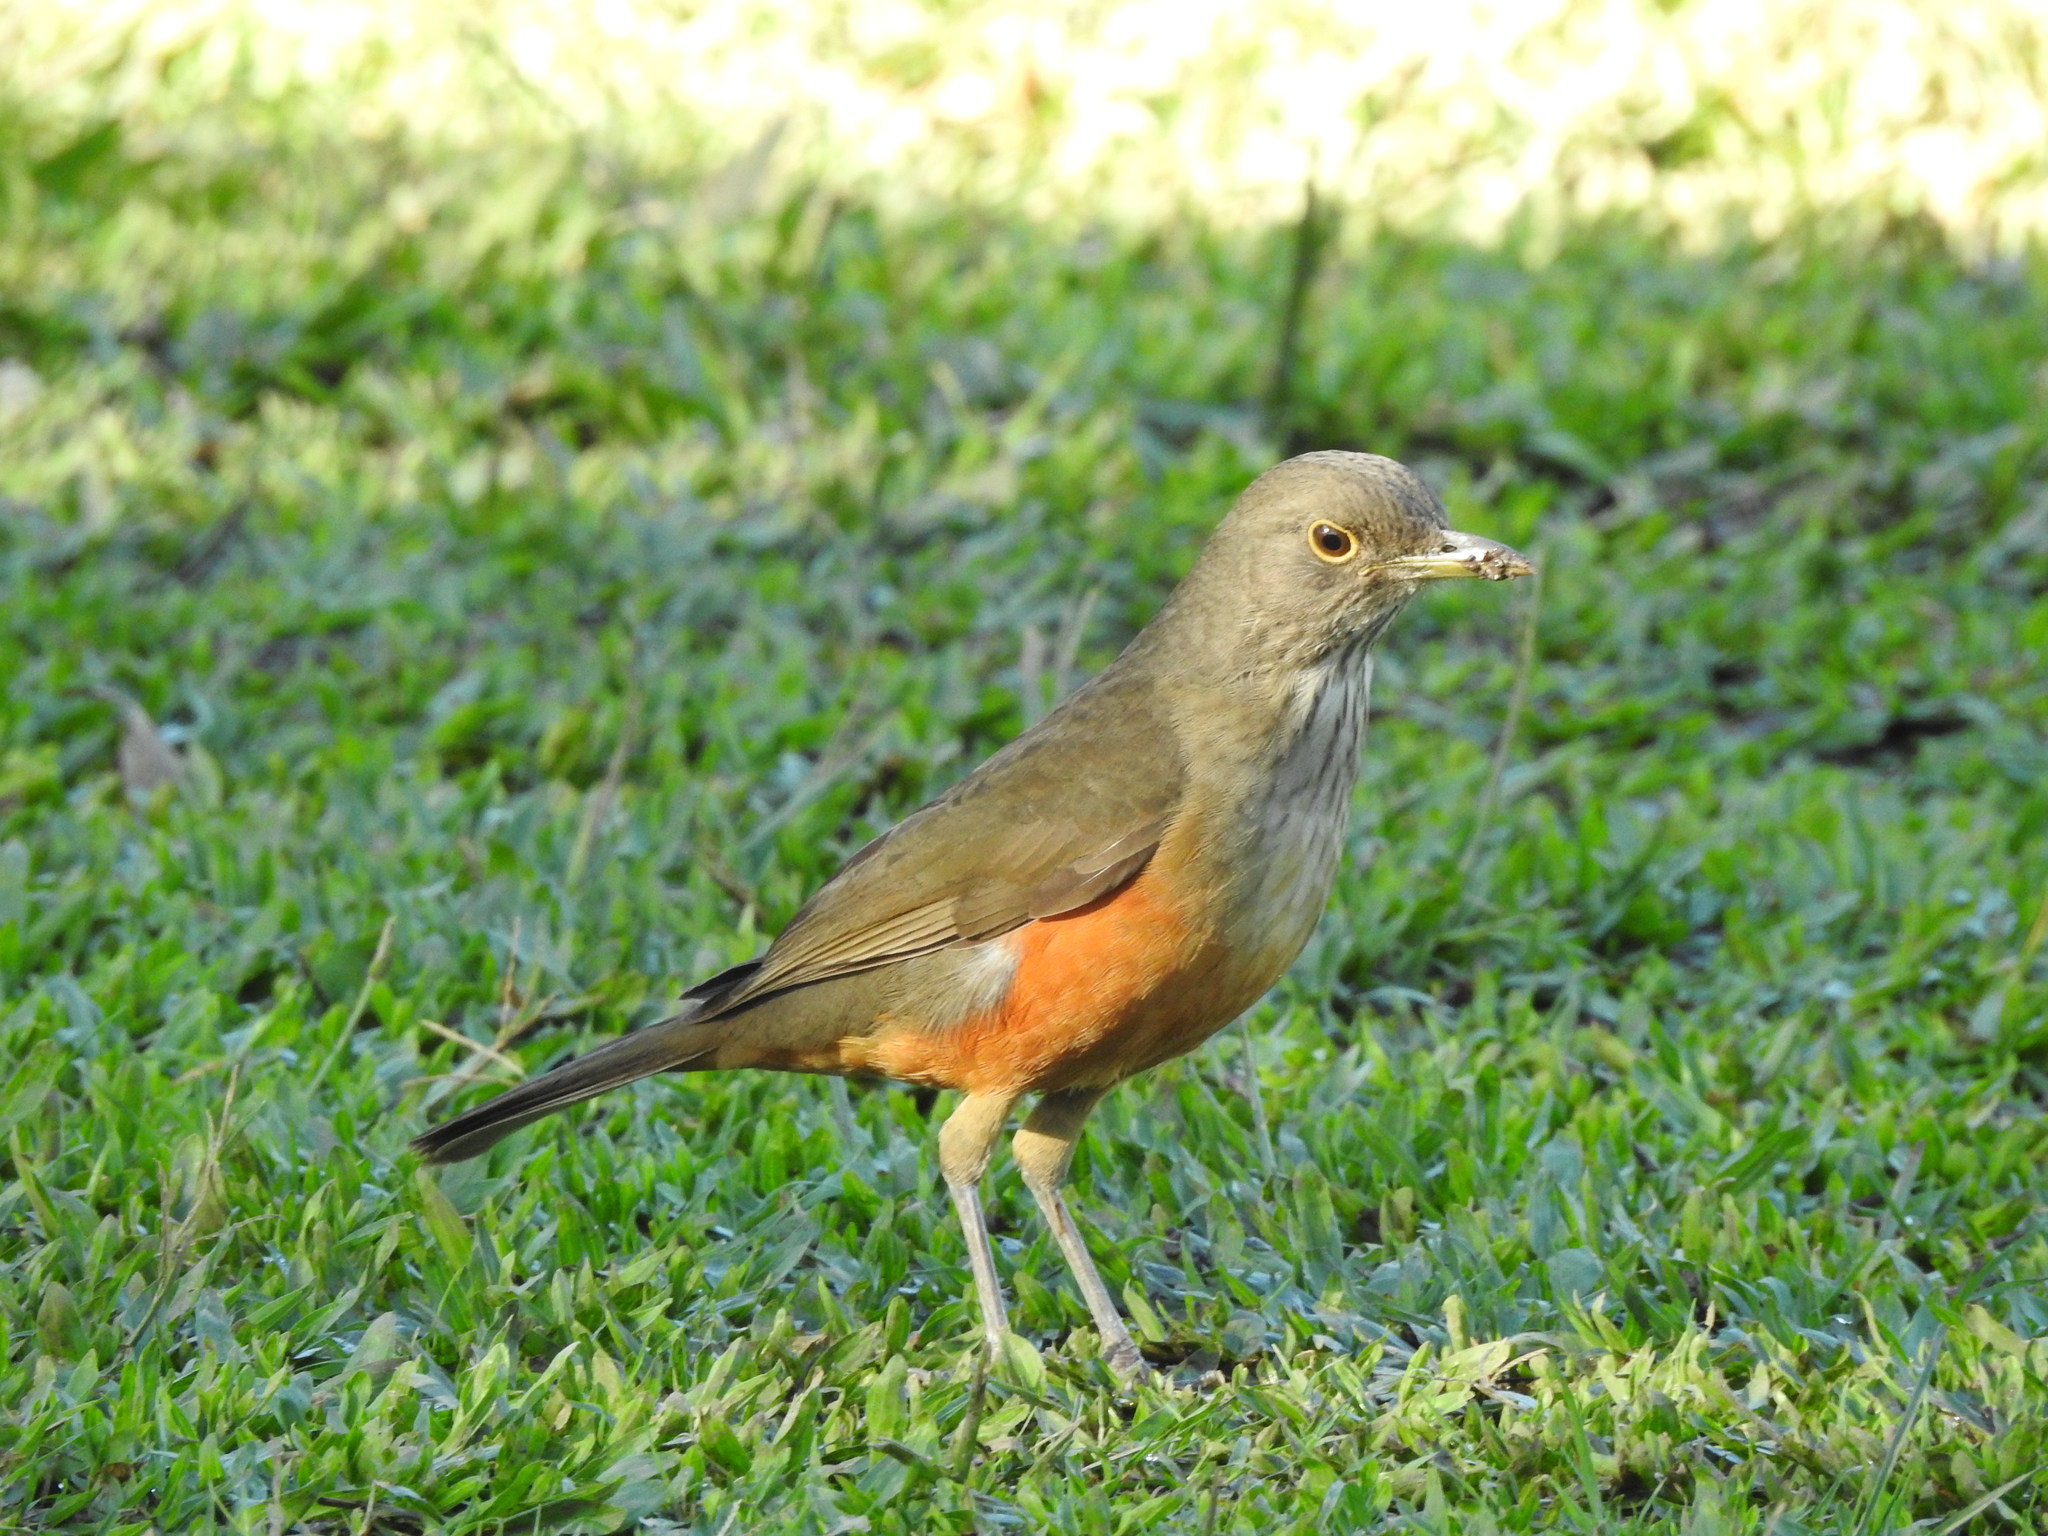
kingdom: Animalia
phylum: Chordata
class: Aves
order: Passeriformes
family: Turdidae
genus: Turdus
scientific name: Turdus rufiventris
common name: Rufous-bellied thrush
